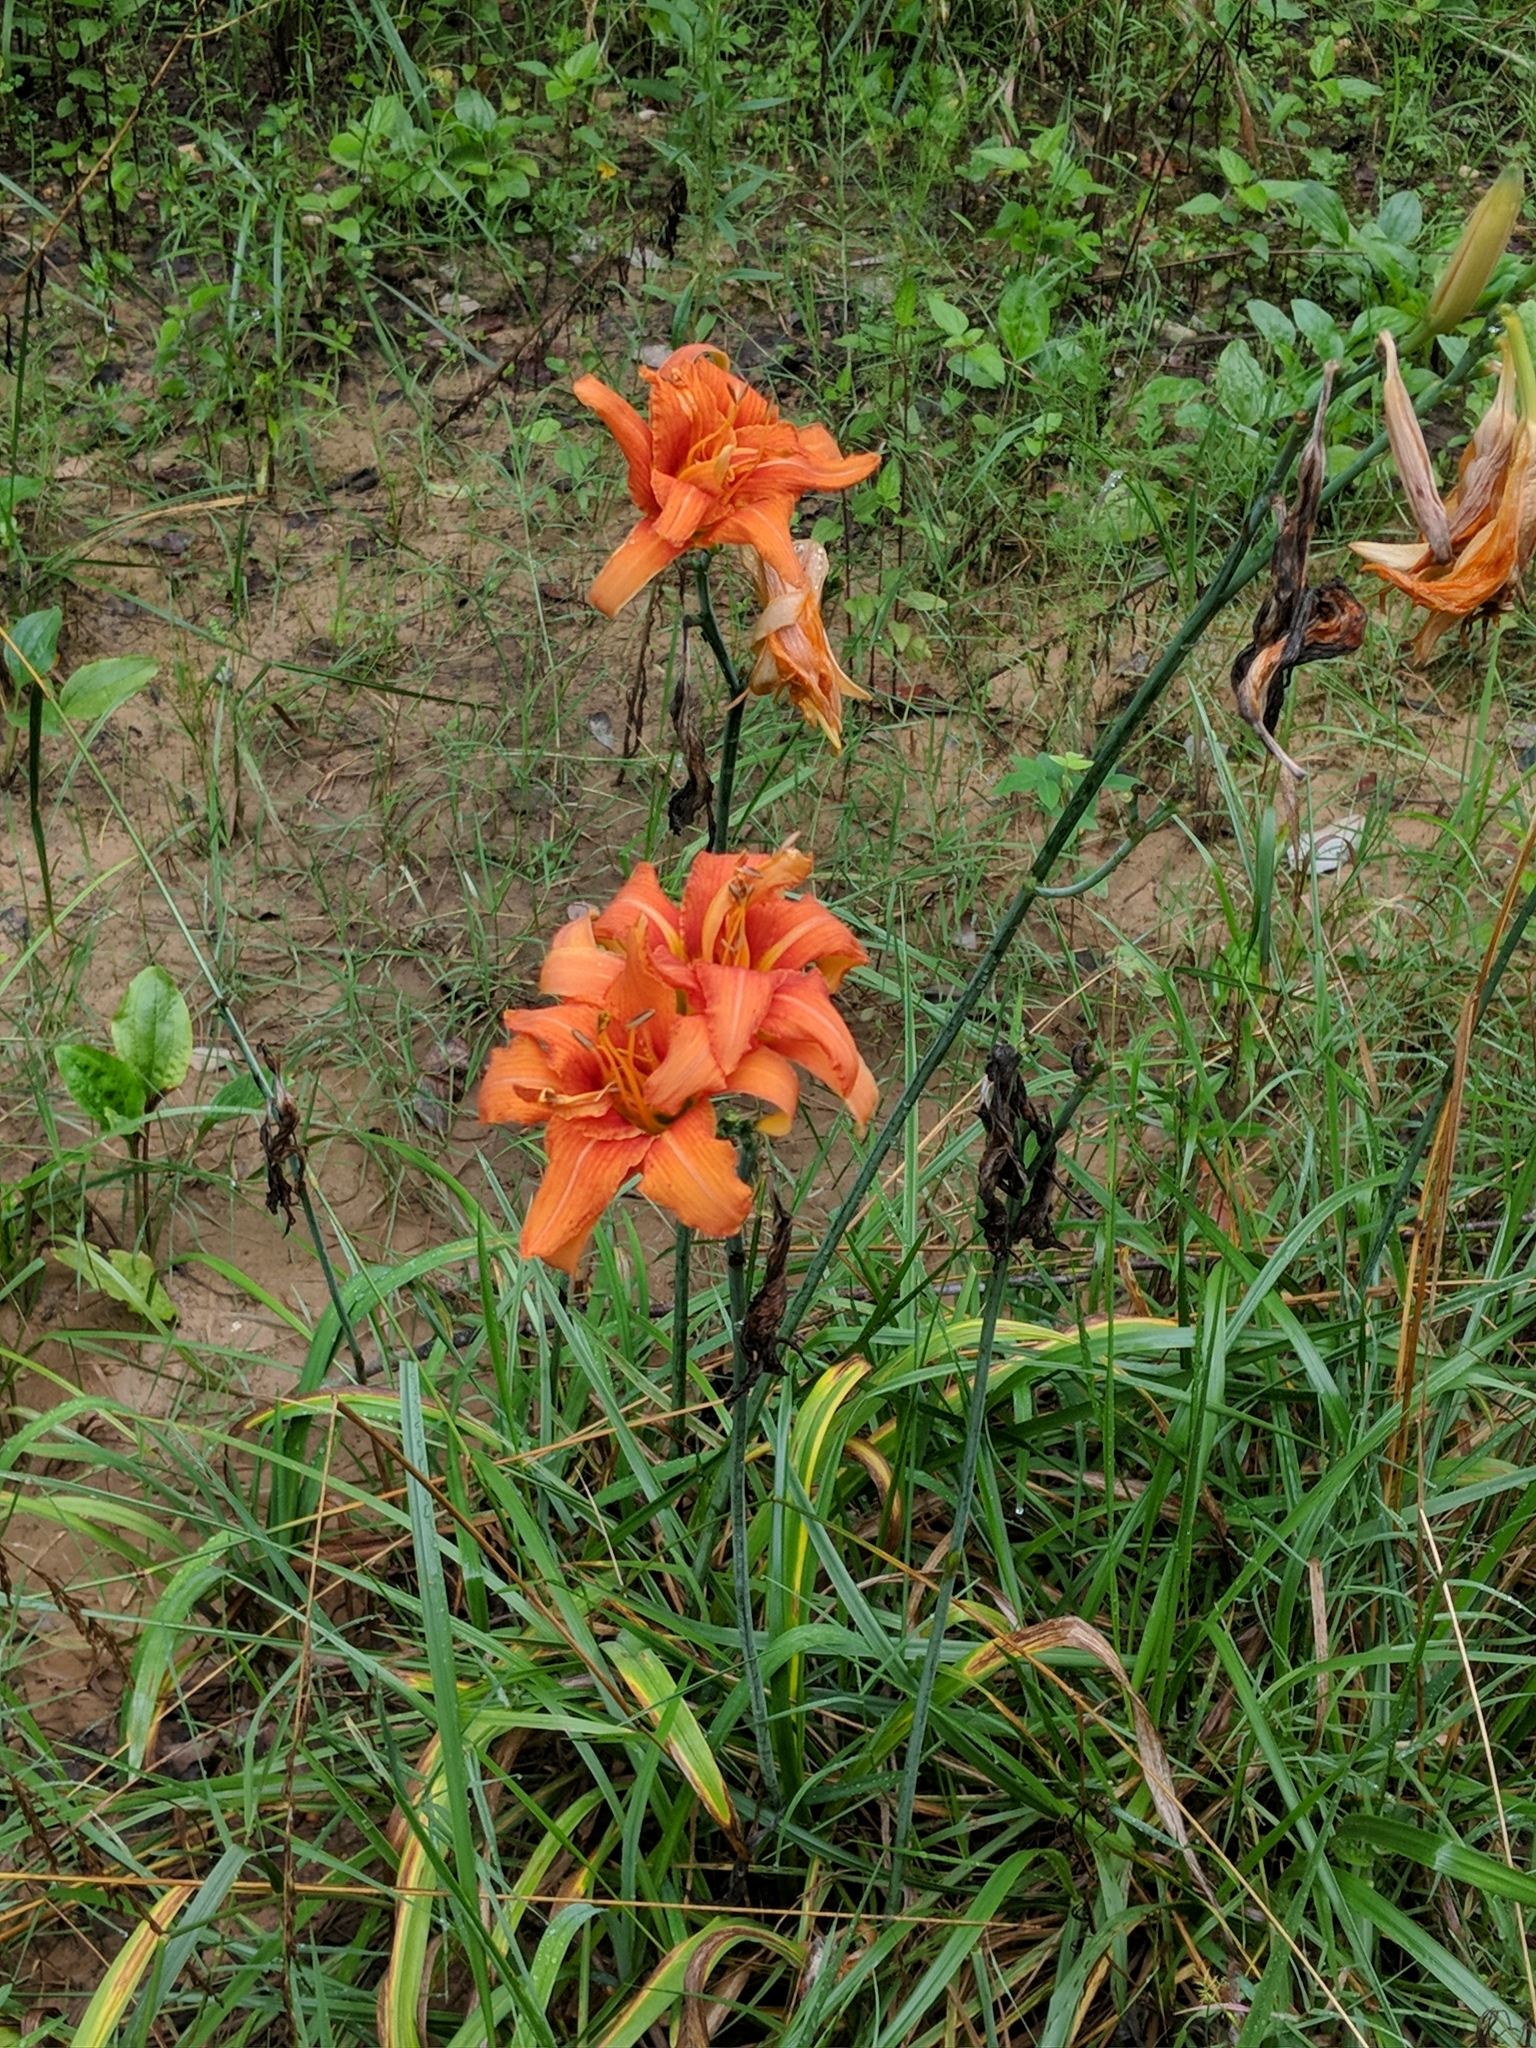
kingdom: Plantae
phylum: Tracheophyta
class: Liliopsida
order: Asparagales
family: Asphodelaceae
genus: Hemerocallis
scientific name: Hemerocallis fulva
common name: Orange day-lily
